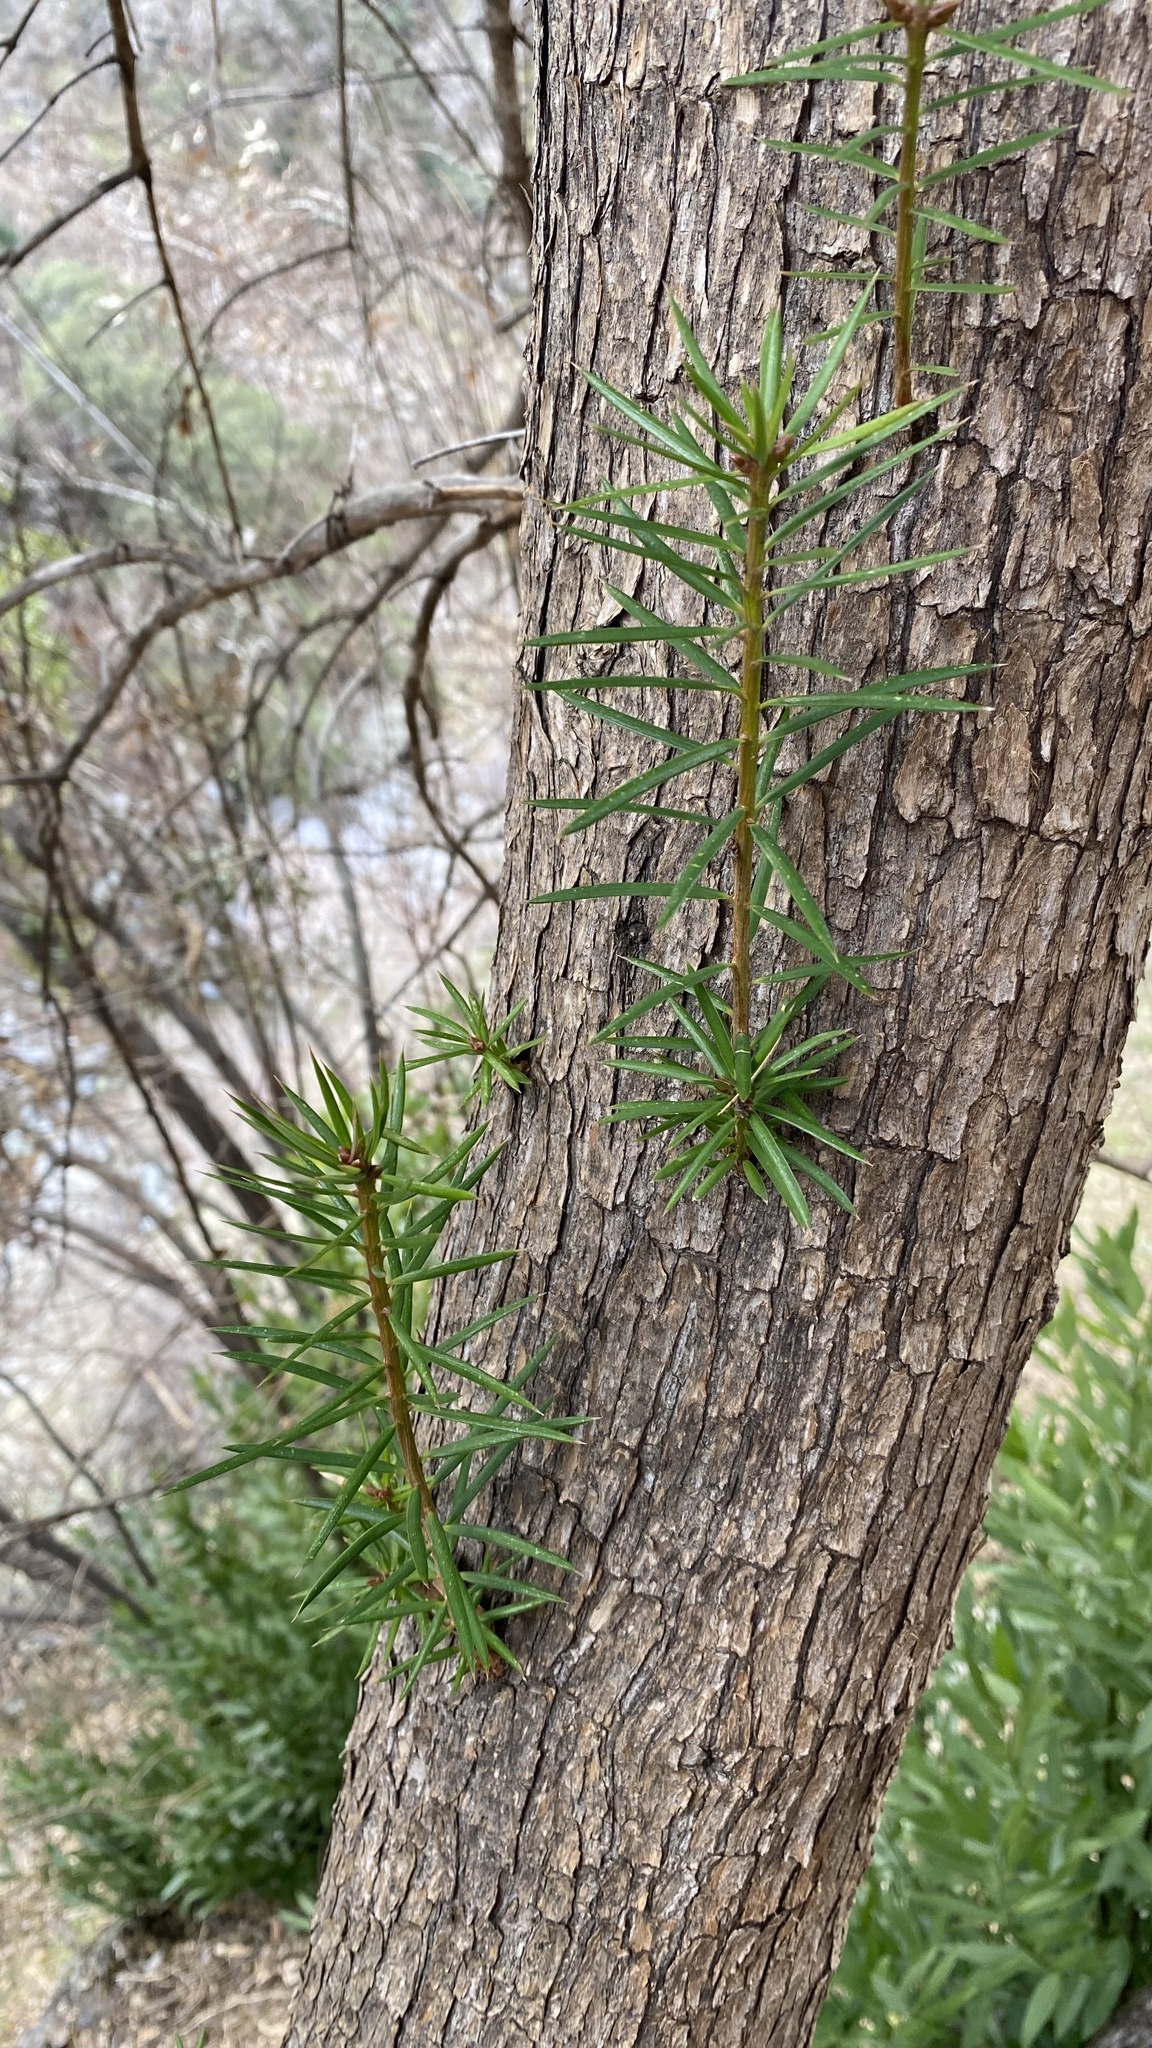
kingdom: Plantae
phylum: Tracheophyta
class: Pinopsida
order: Pinales
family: Taxaceae
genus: Torreya
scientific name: Torreya californica
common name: California torreya
